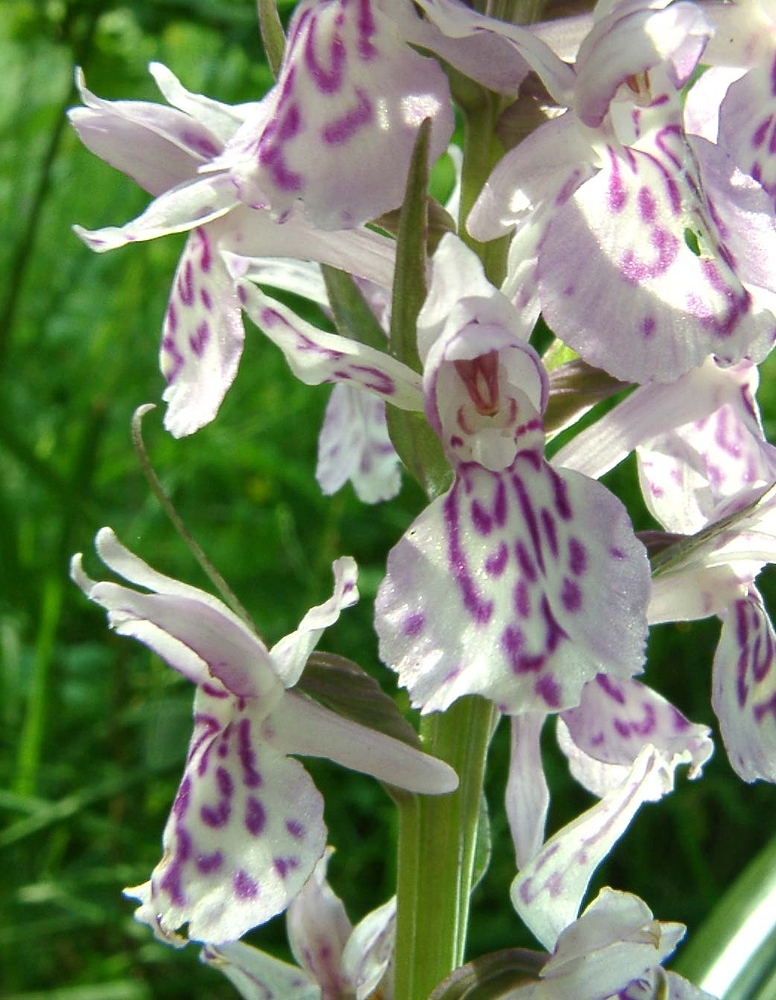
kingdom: Plantae
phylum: Tracheophyta
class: Liliopsida
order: Asparagales
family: Orchidaceae
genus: Dactylorhiza
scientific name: Dactylorhiza maculata
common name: Heath spotted-orchid
